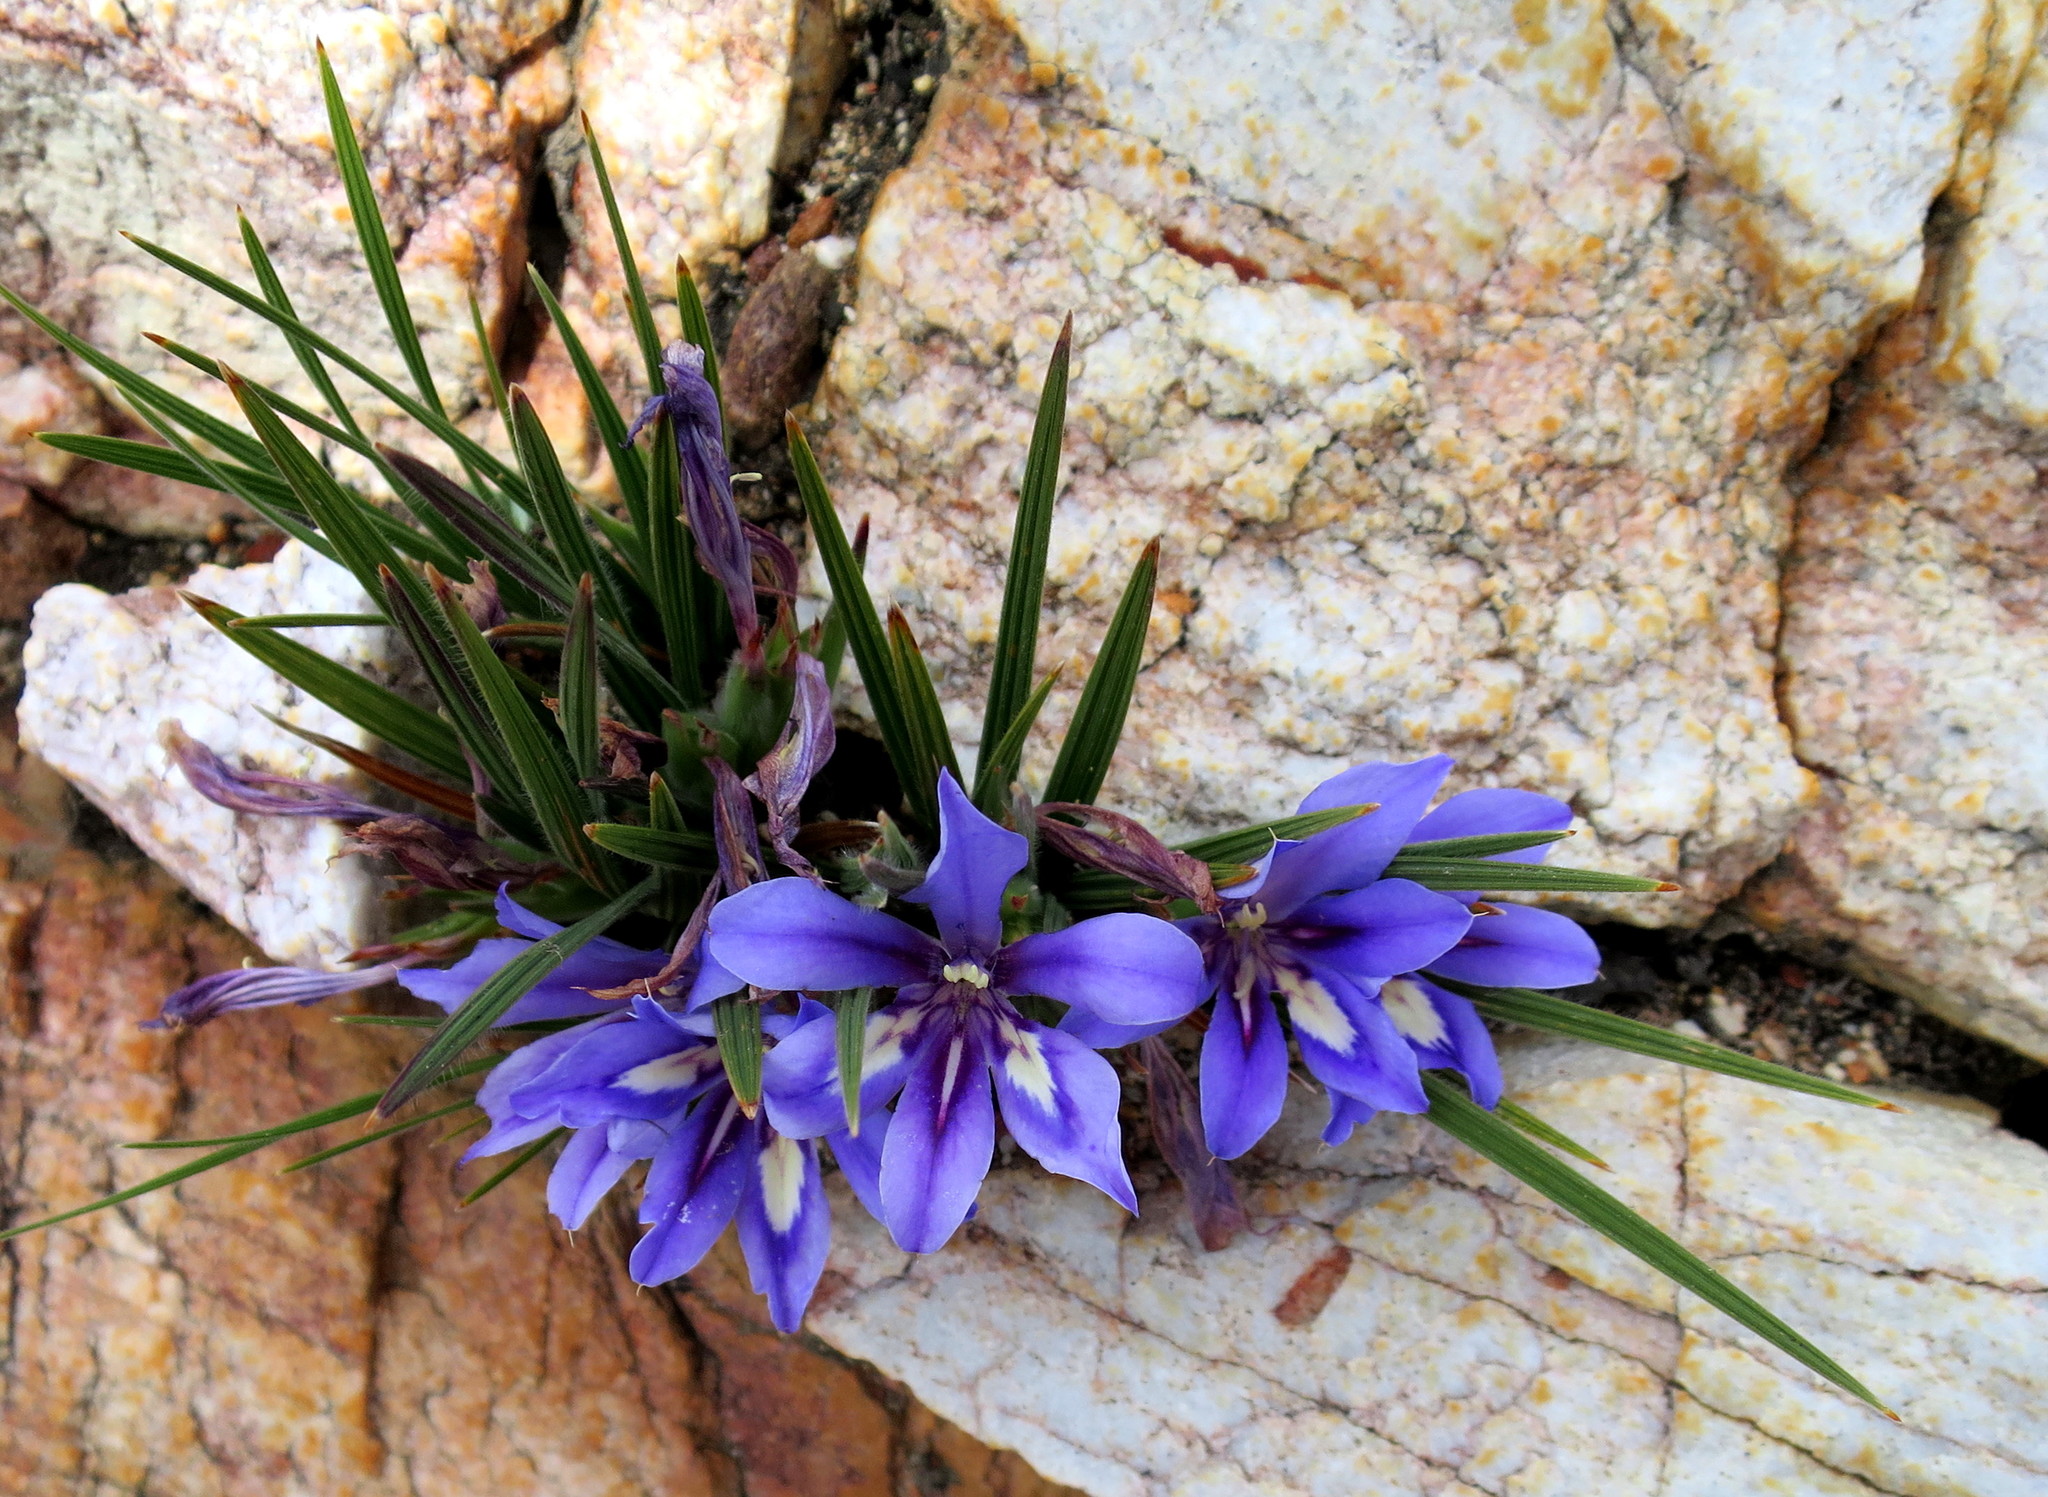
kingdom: Plantae
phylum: Tracheophyta
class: Liliopsida
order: Asparagales
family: Iridaceae
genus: Babiana
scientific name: Babiana sambucina
